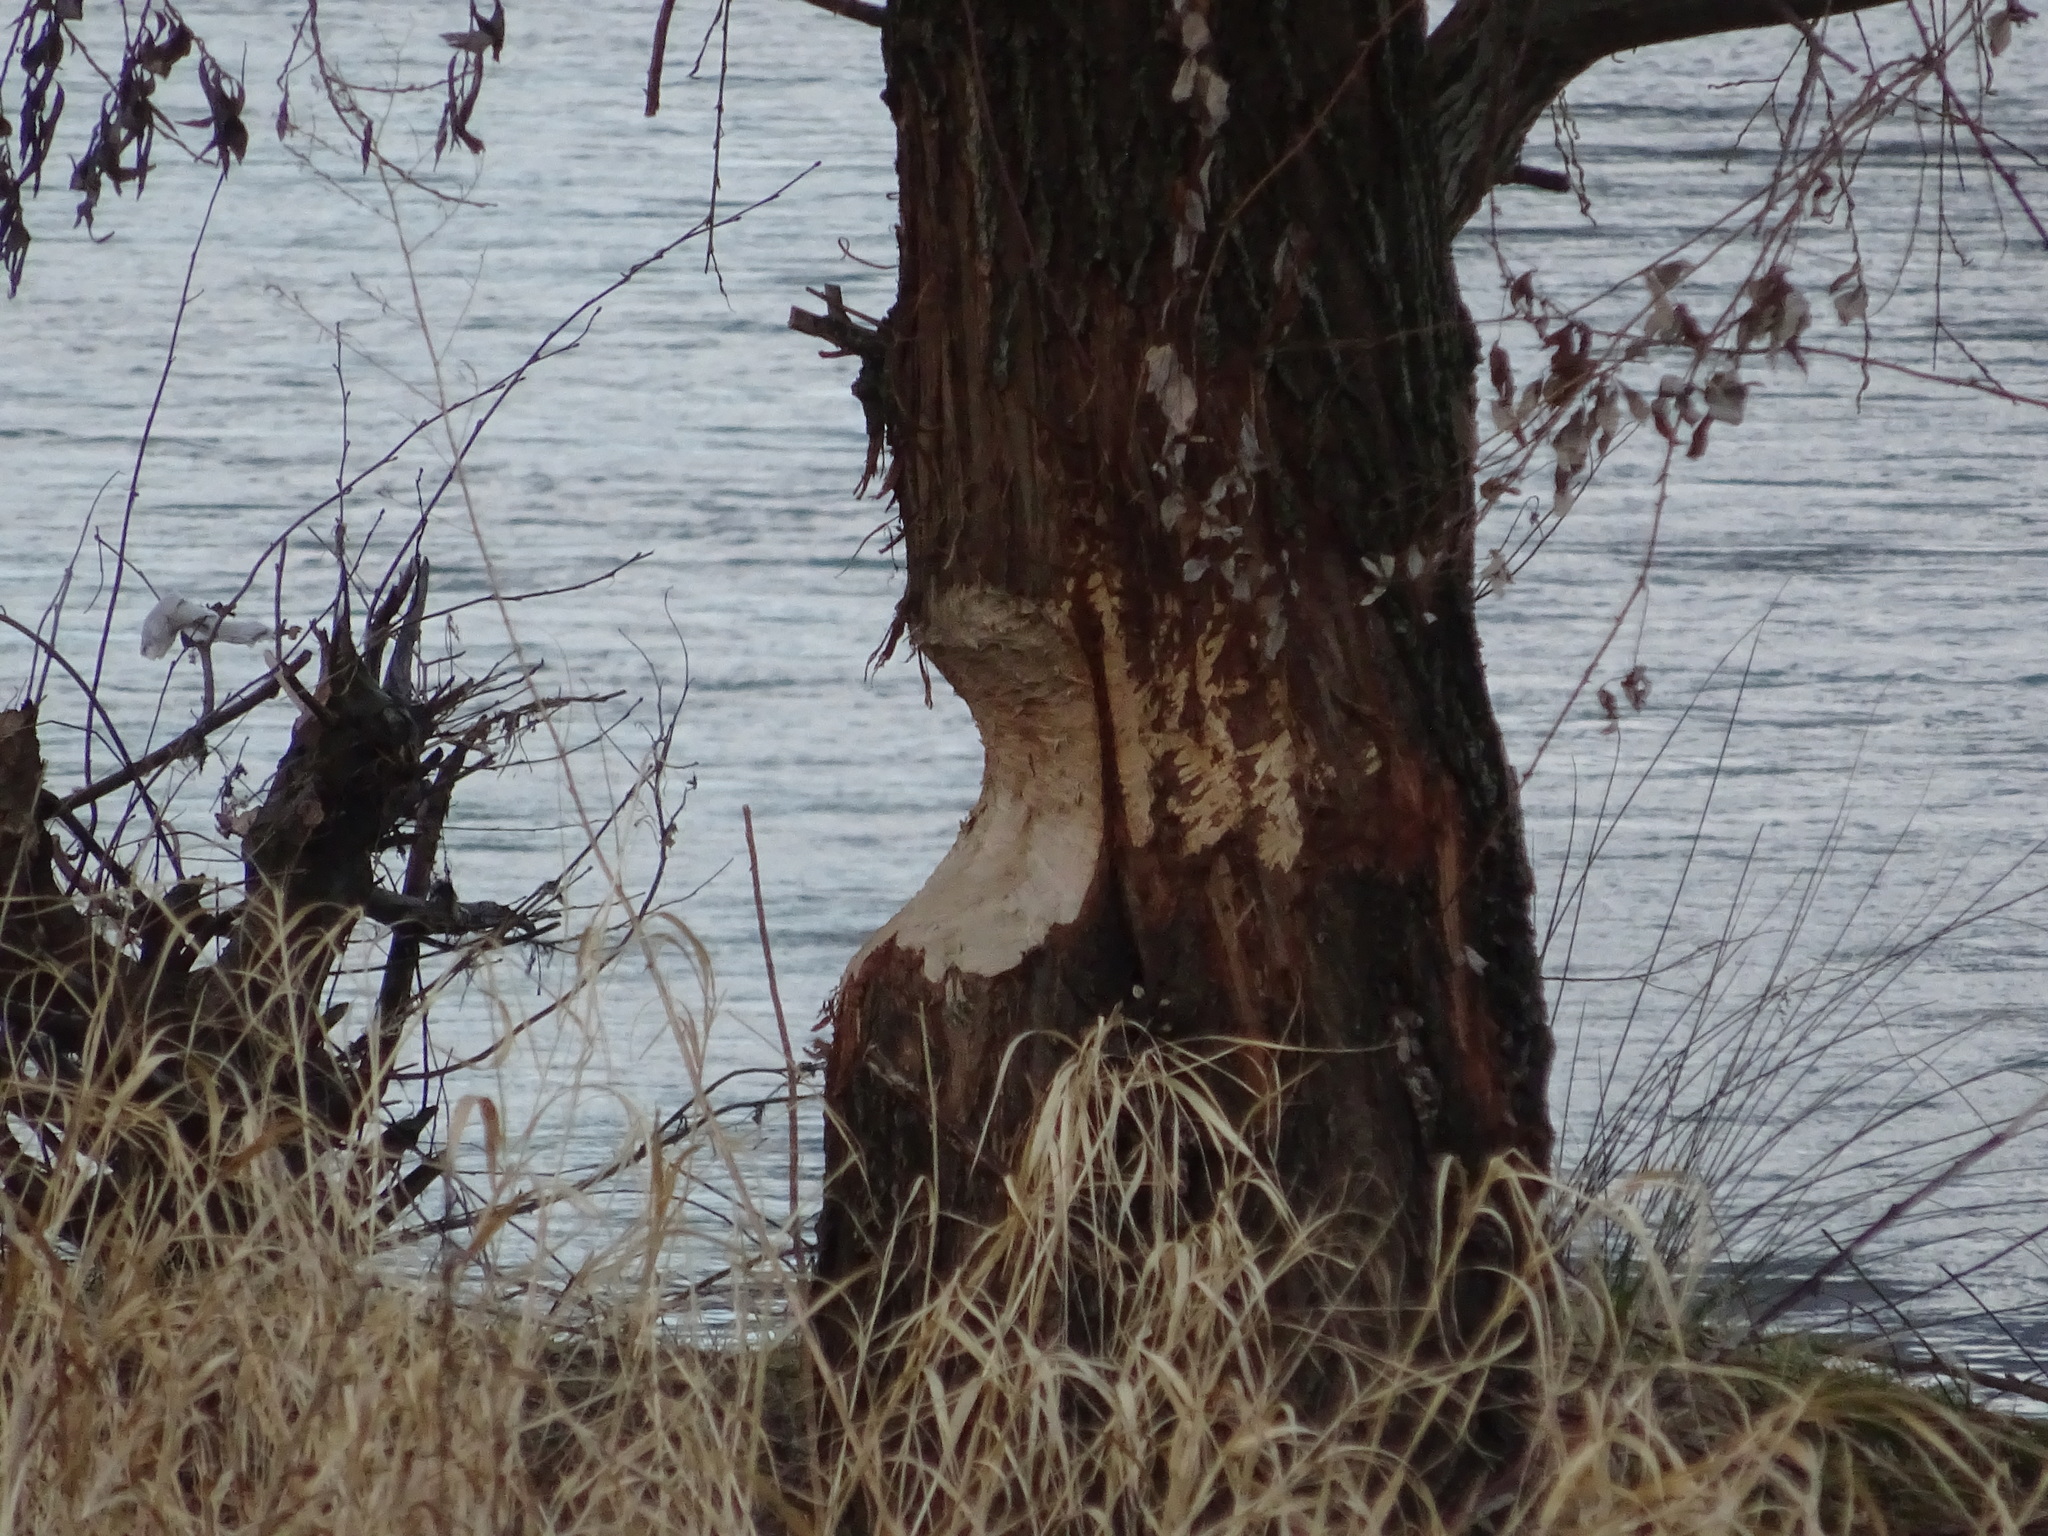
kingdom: Animalia
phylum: Chordata
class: Mammalia
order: Rodentia
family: Castoridae
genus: Castor
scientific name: Castor fiber
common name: Eurasian beaver
